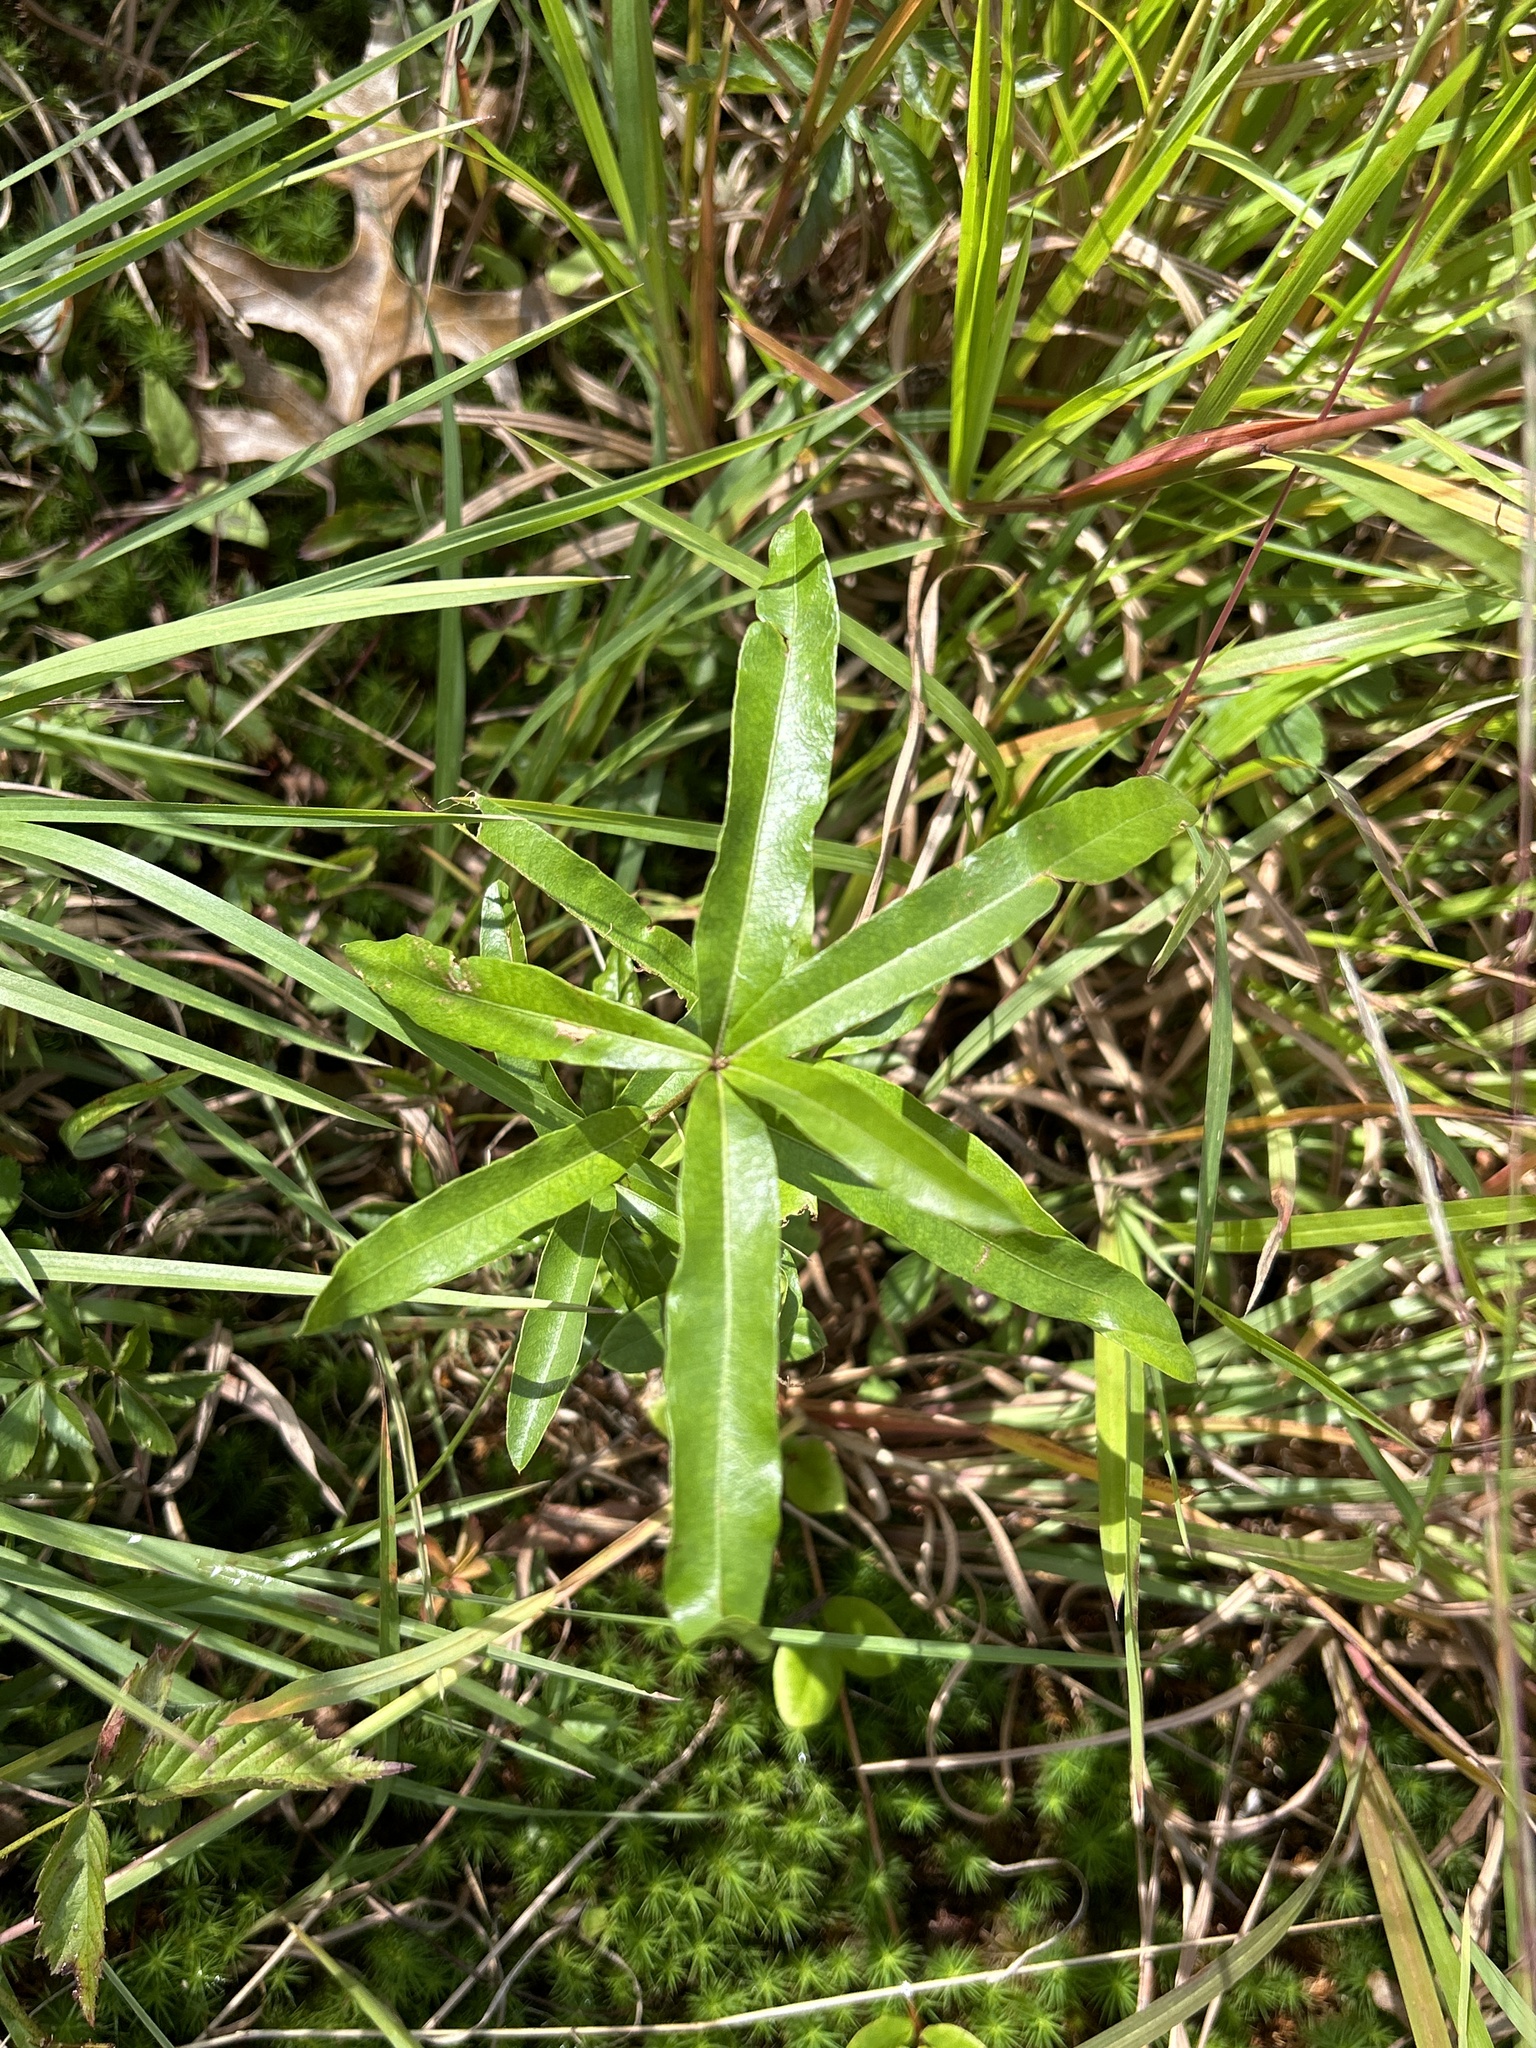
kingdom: Plantae
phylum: Tracheophyta
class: Magnoliopsida
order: Fagales
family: Fagaceae
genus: Quercus
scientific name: Quercus phellos
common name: Willow oak
